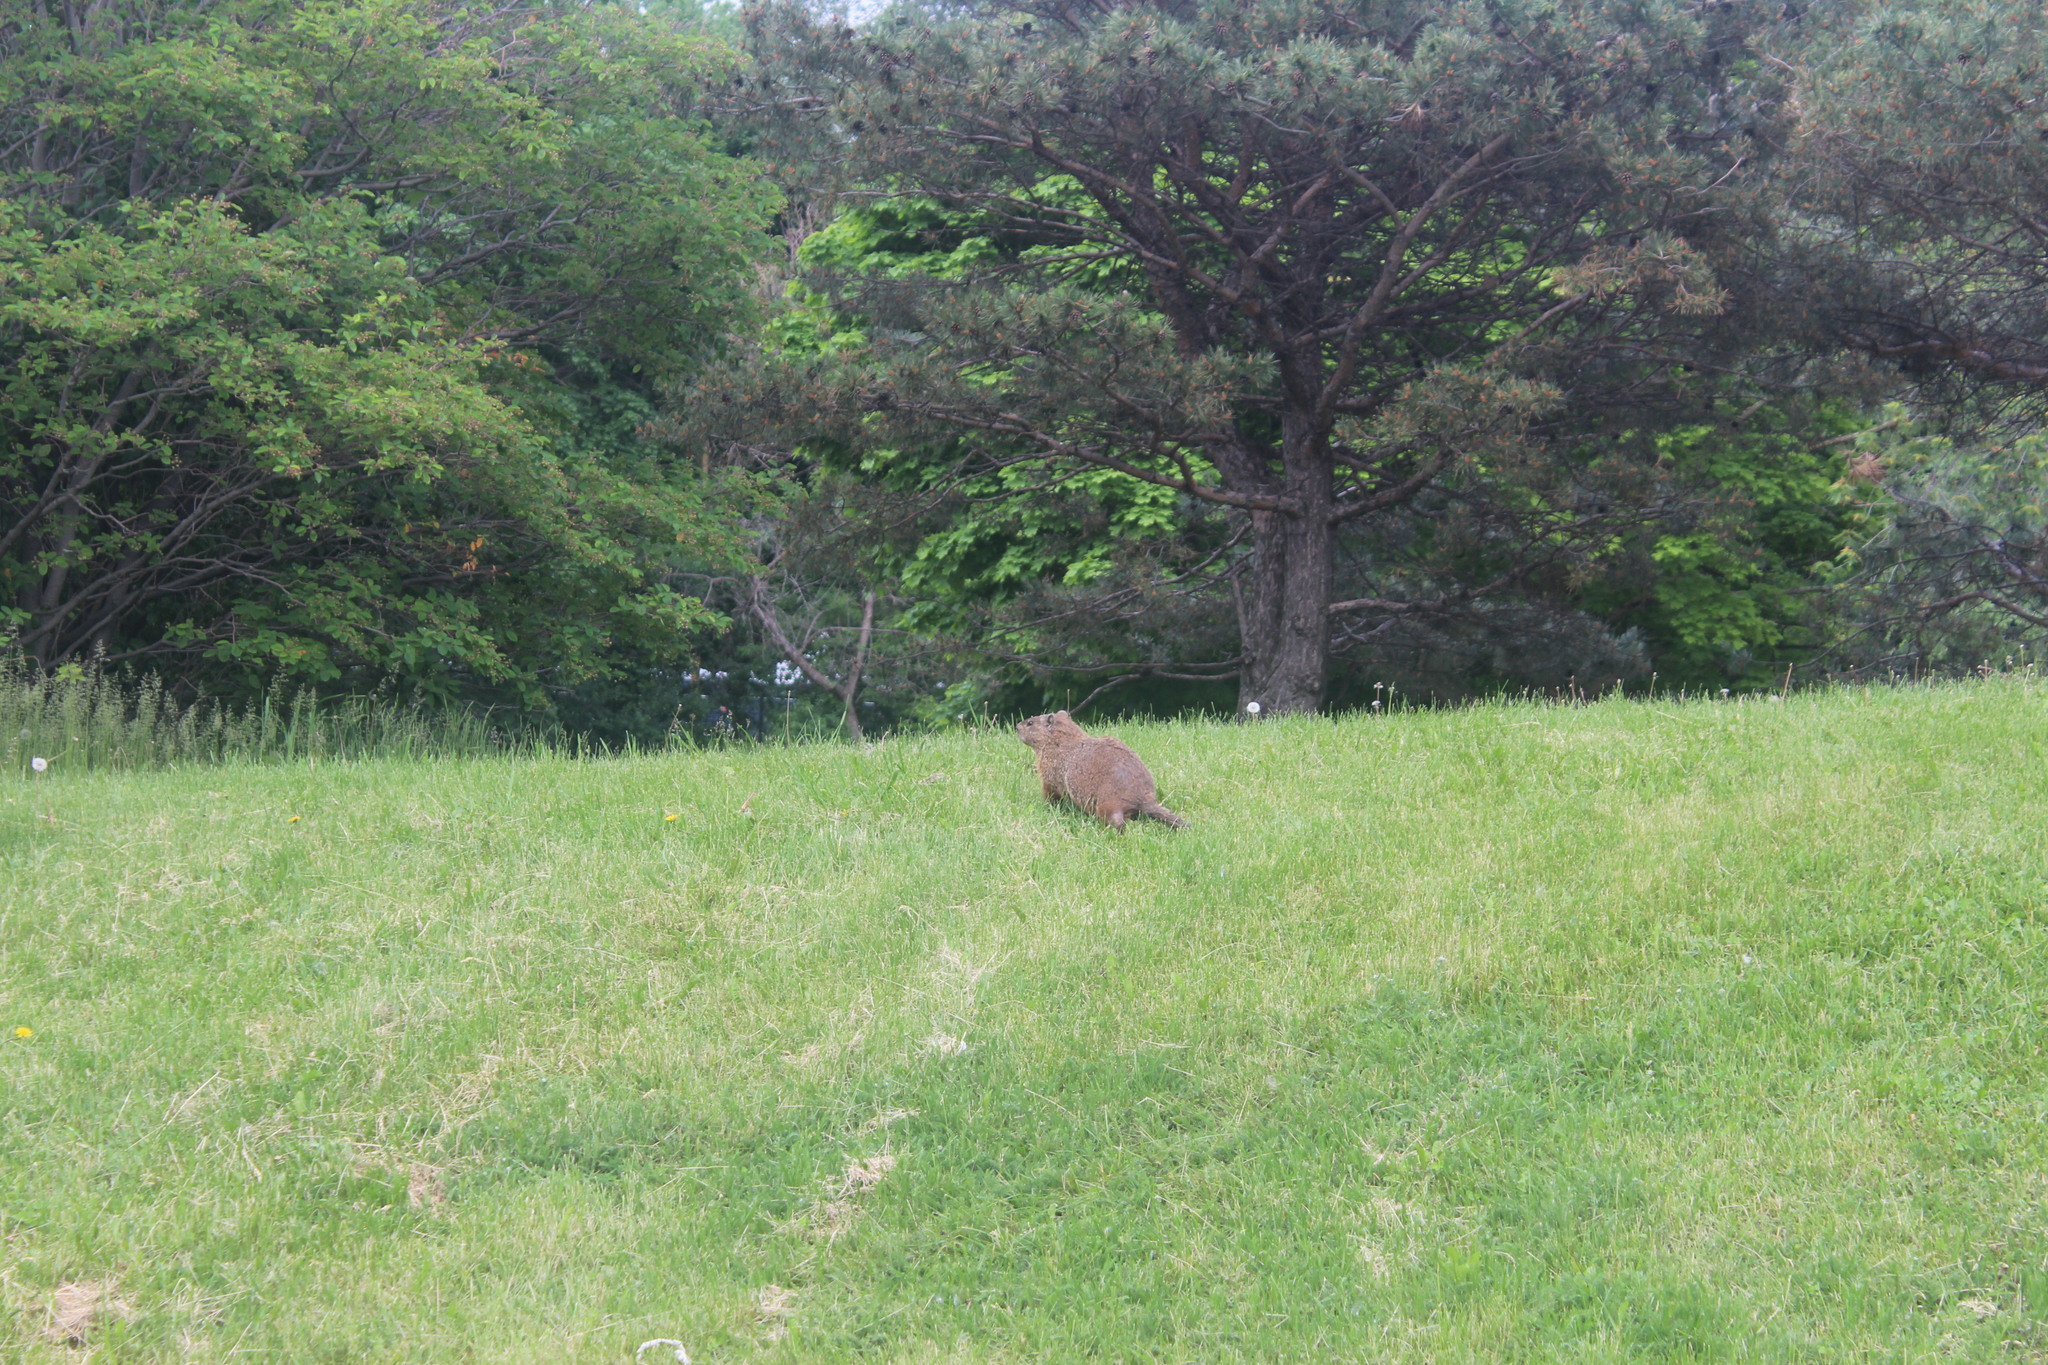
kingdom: Animalia
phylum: Chordata
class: Mammalia
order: Rodentia
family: Sciuridae
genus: Marmota
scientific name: Marmota monax
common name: Groundhog
